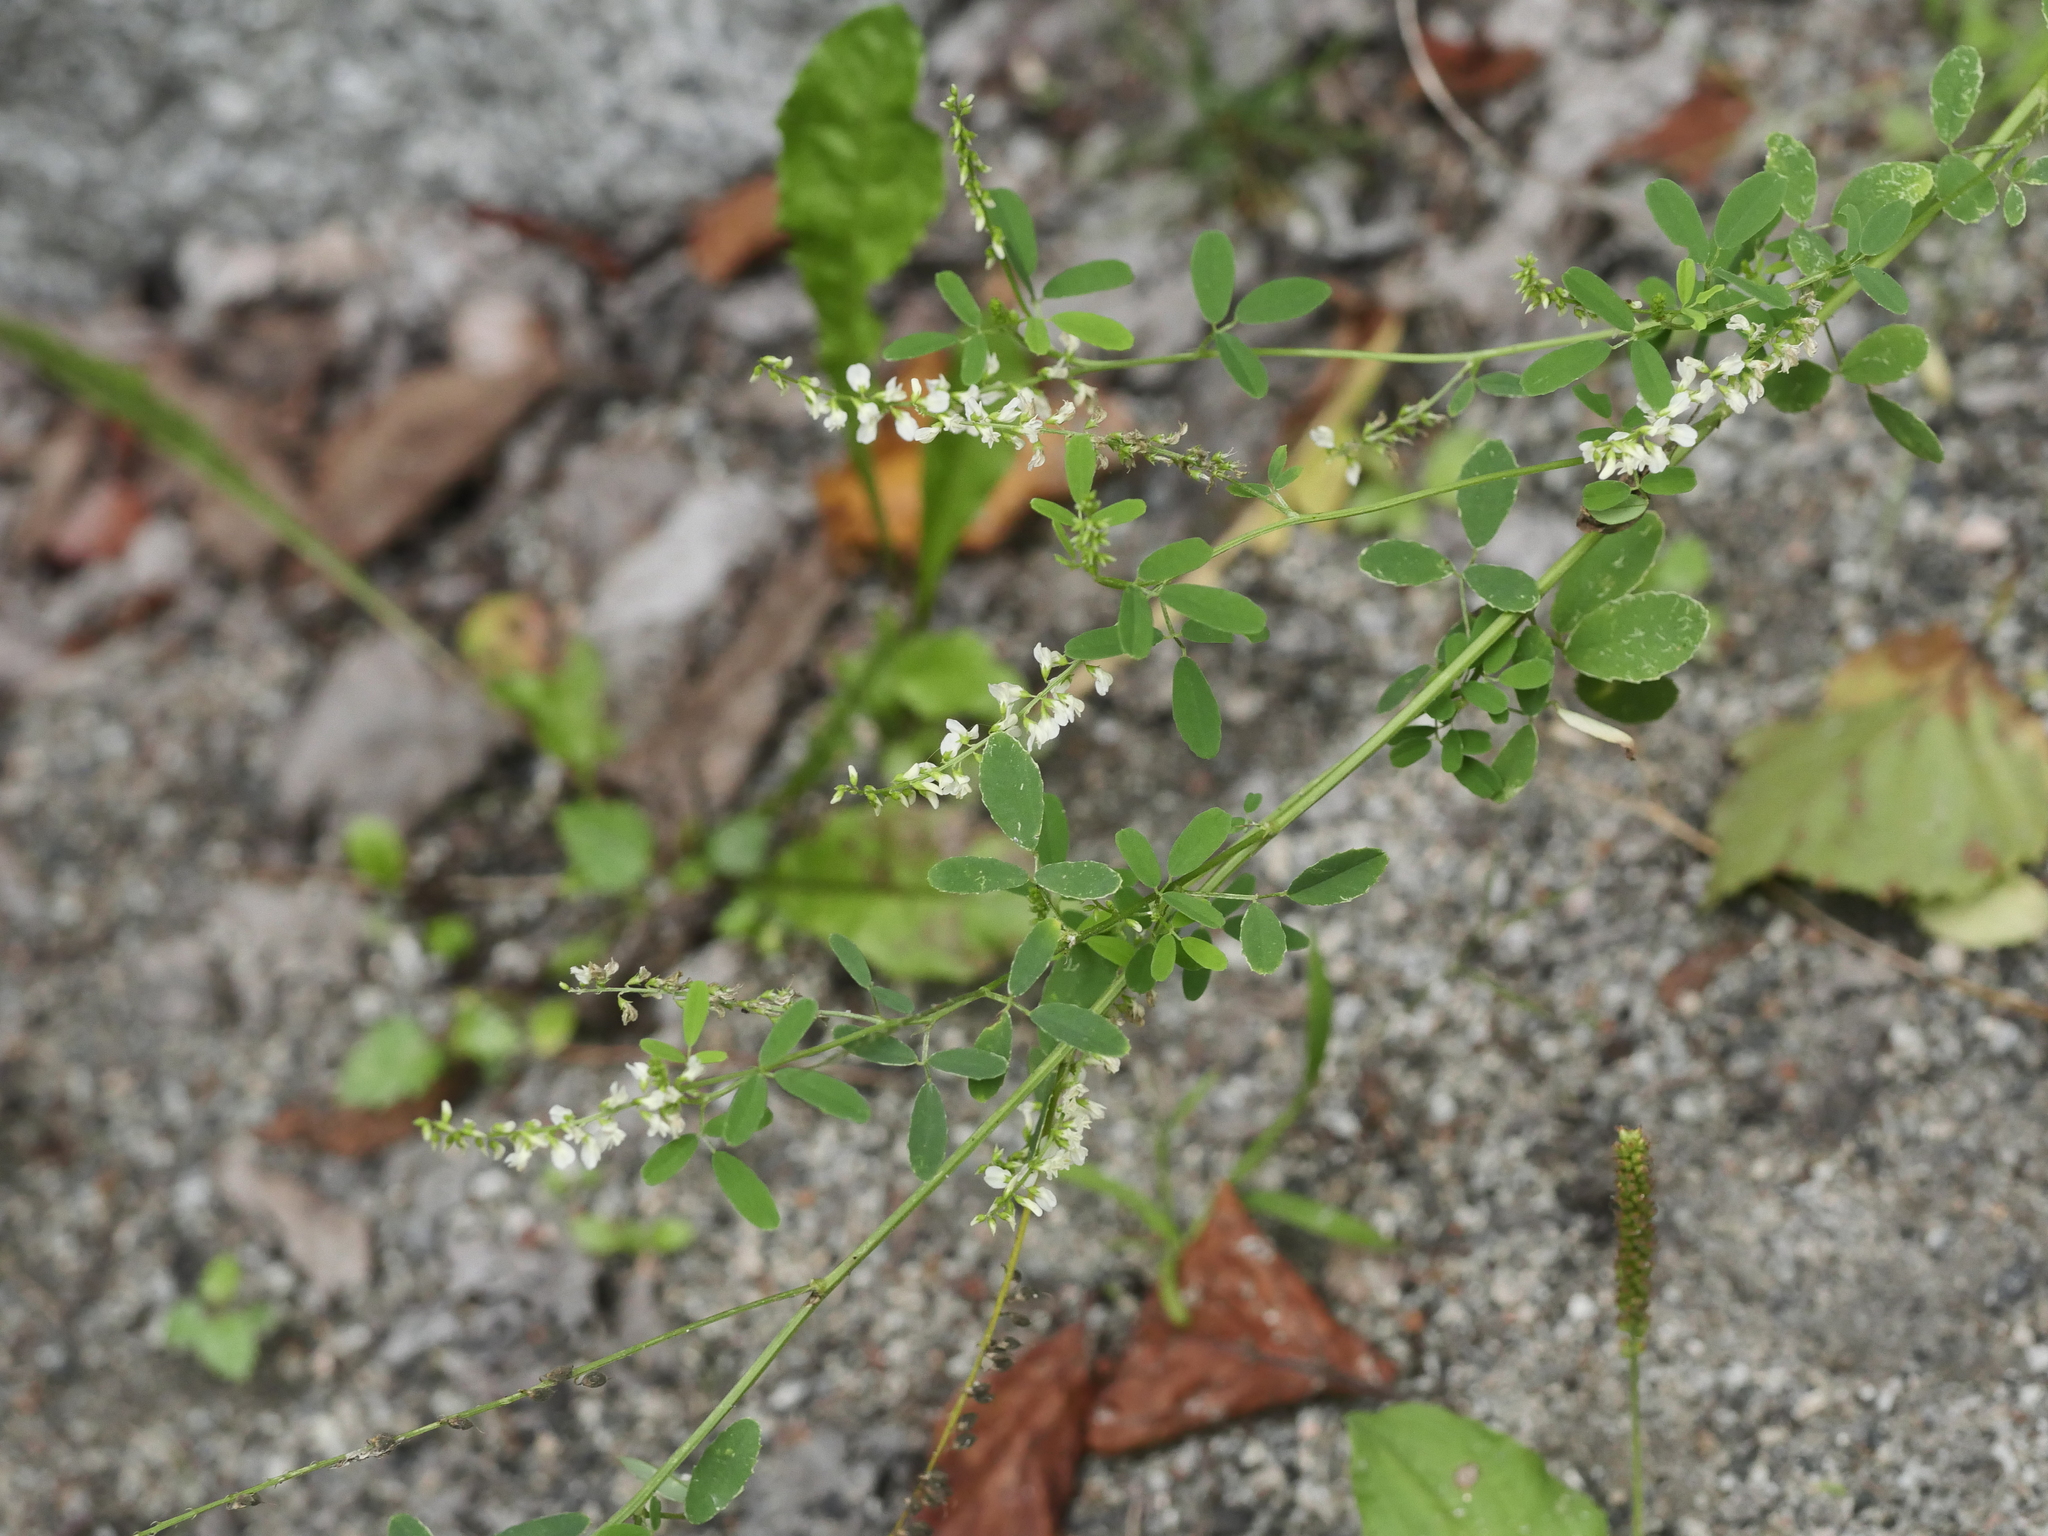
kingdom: Plantae
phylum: Tracheophyta
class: Magnoliopsida
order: Fabales
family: Fabaceae
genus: Melilotus
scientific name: Melilotus albus
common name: White melilot
